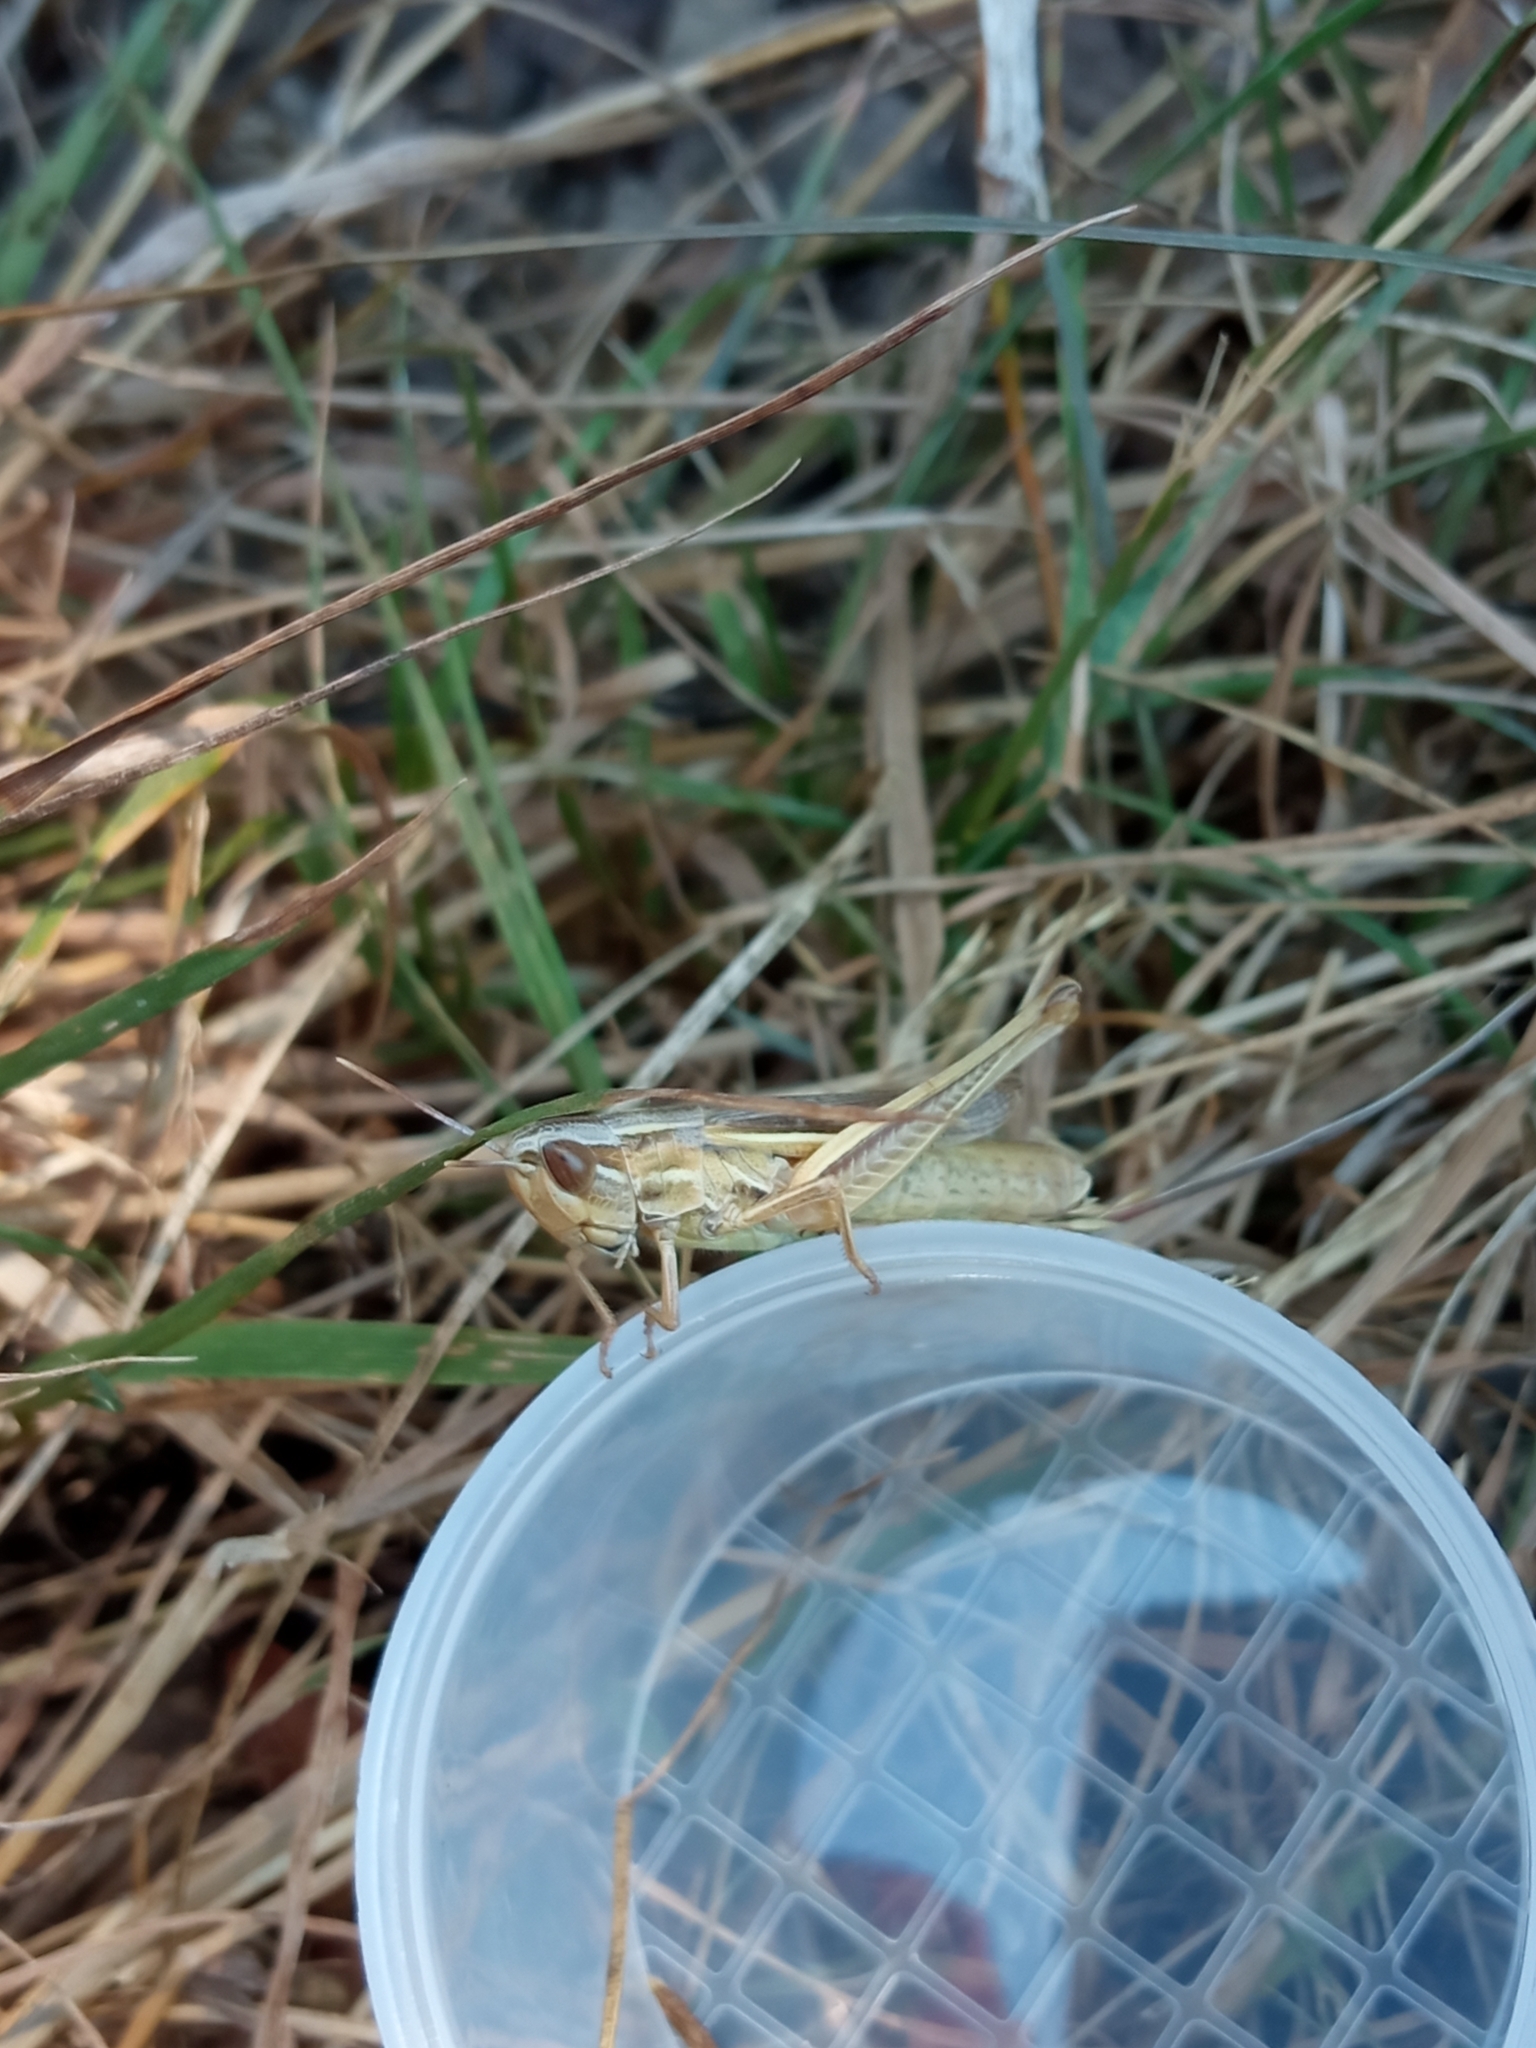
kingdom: Animalia
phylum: Arthropoda
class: Insecta
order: Orthoptera
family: Acrididae
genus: Euchorthippus
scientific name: Euchorthippus declivus
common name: Common straw grasshopper
